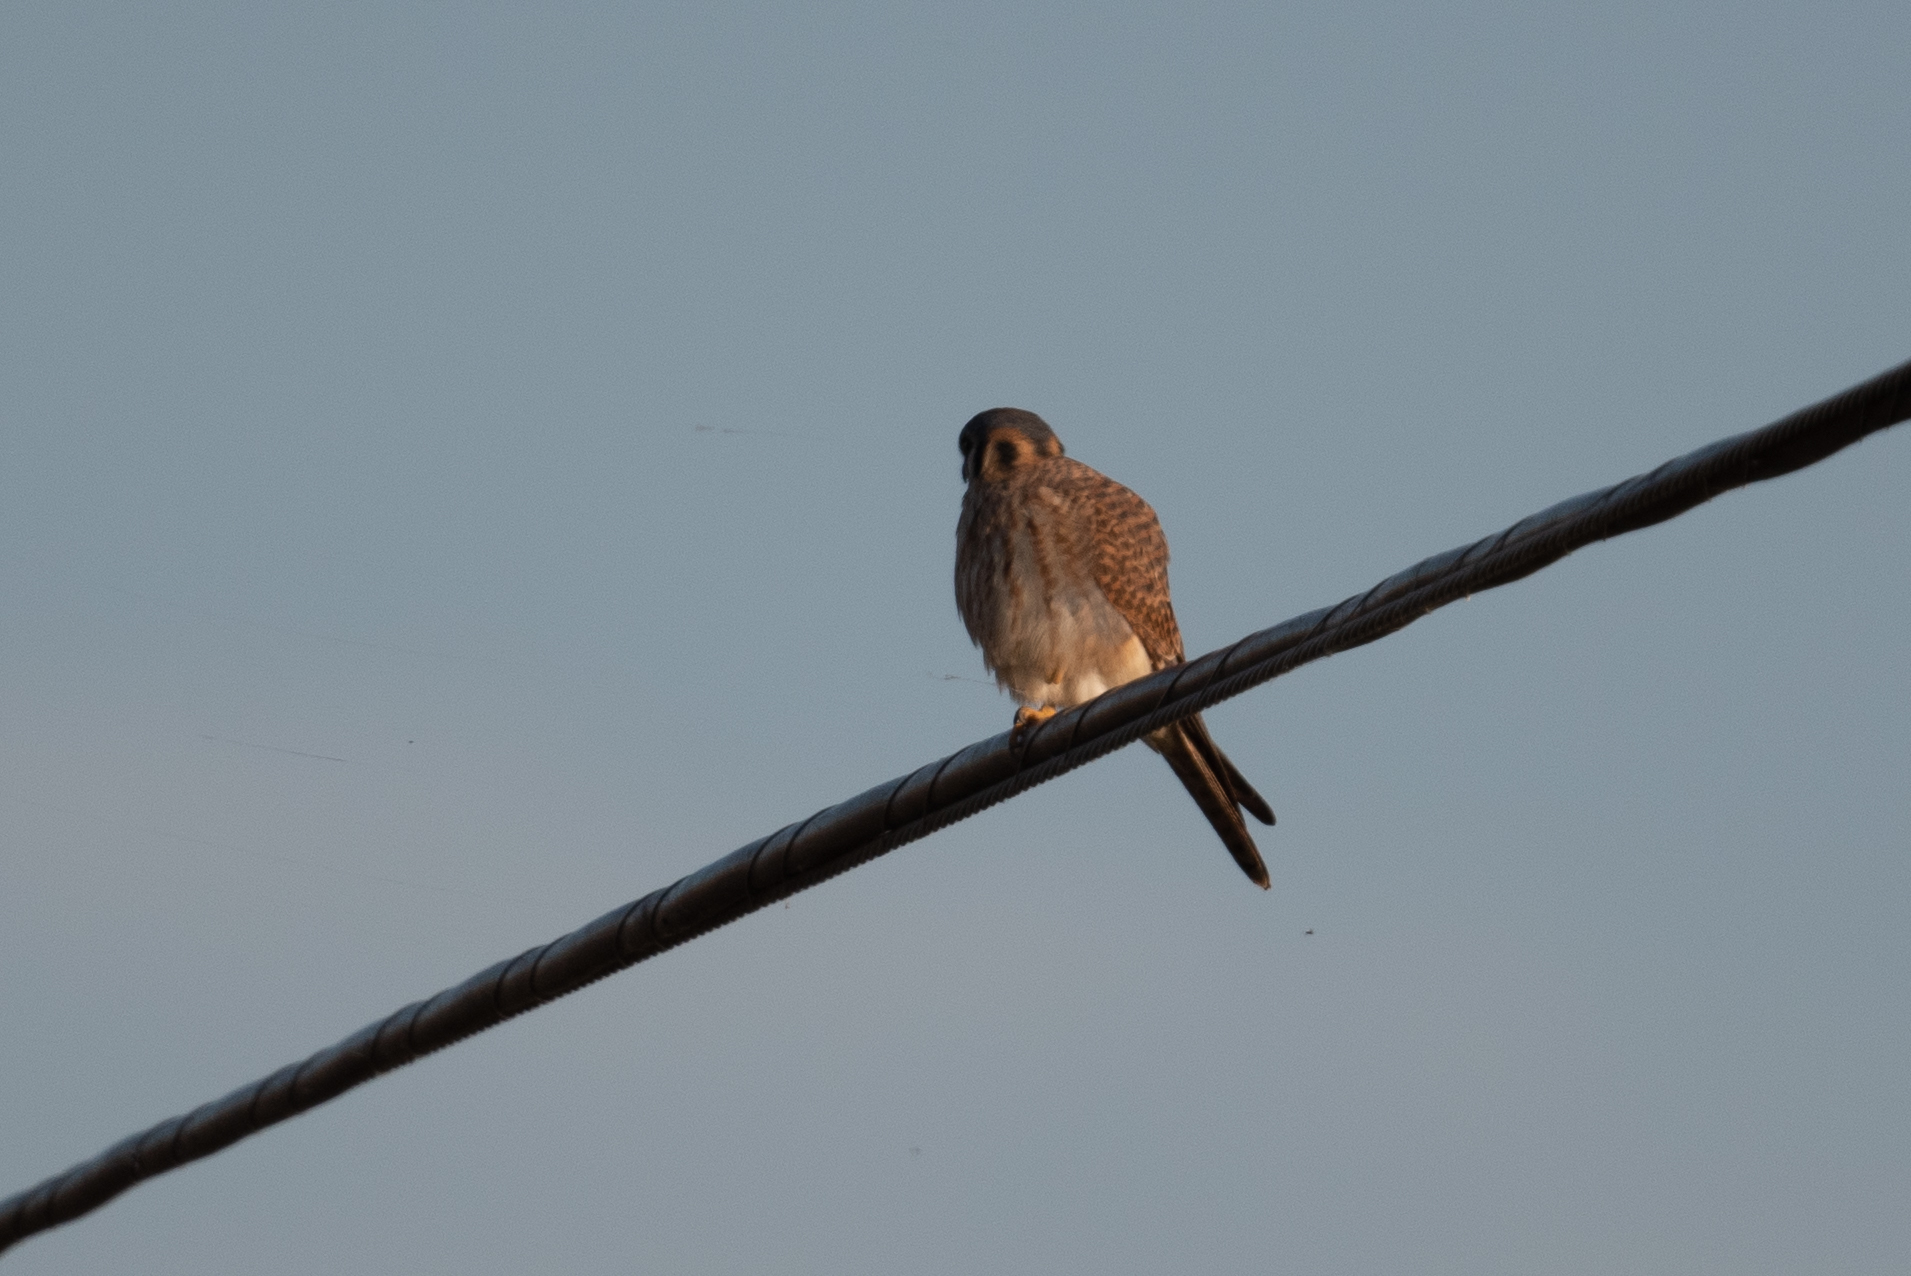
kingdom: Animalia
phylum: Chordata
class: Aves
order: Falconiformes
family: Falconidae
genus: Falco
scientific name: Falco sparverius
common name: American kestrel
